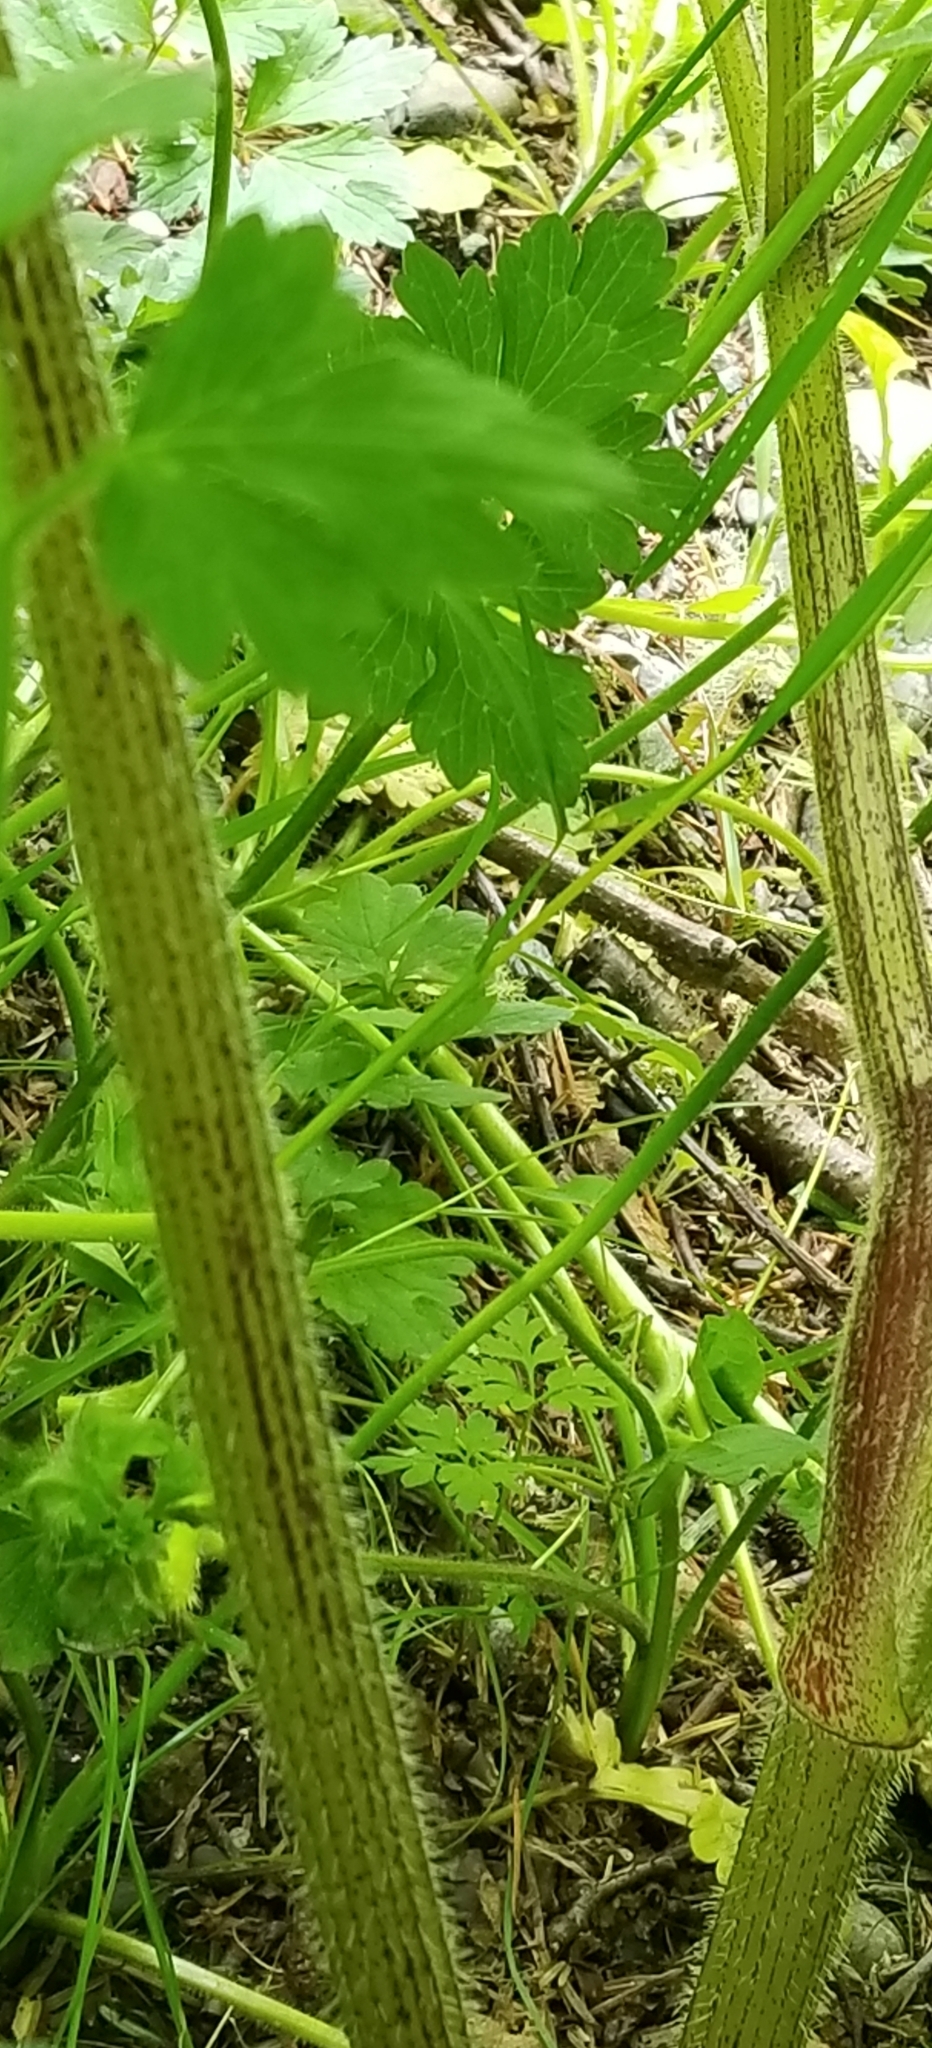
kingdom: Plantae
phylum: Tracheophyta
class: Magnoliopsida
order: Apiales
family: Apiaceae
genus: Heracleum
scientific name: Heracleum maximum
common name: American cow parsnip
